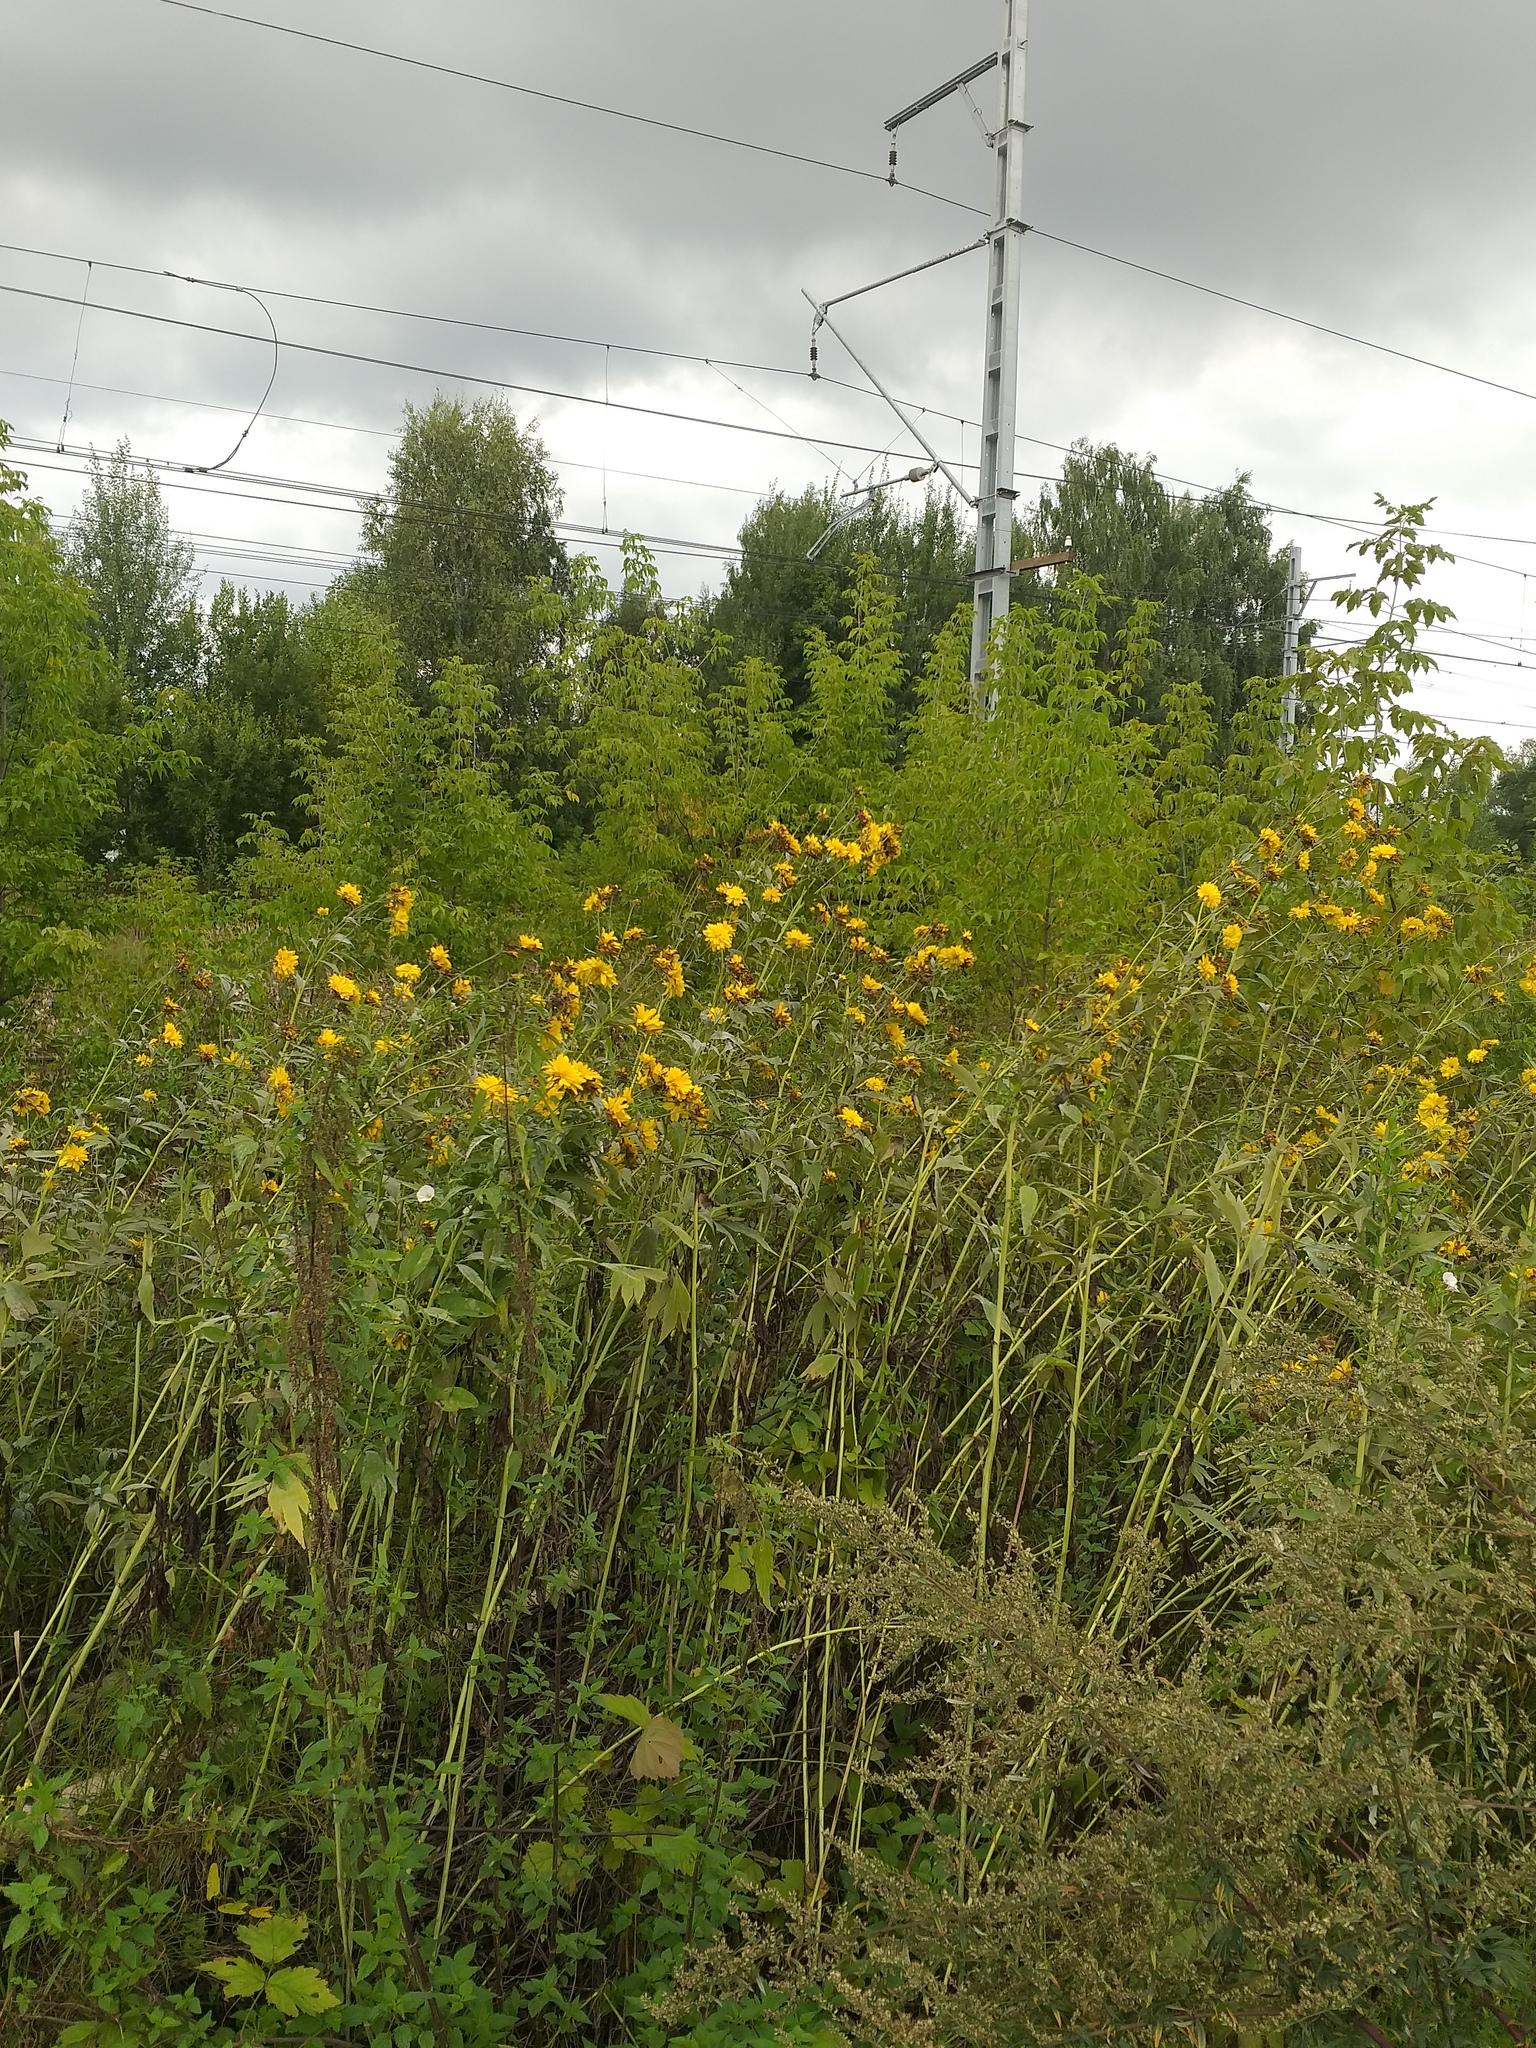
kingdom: Plantae
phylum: Tracheophyta
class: Magnoliopsida
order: Asterales
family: Asteraceae
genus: Rudbeckia
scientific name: Rudbeckia laciniata
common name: Coneflower
